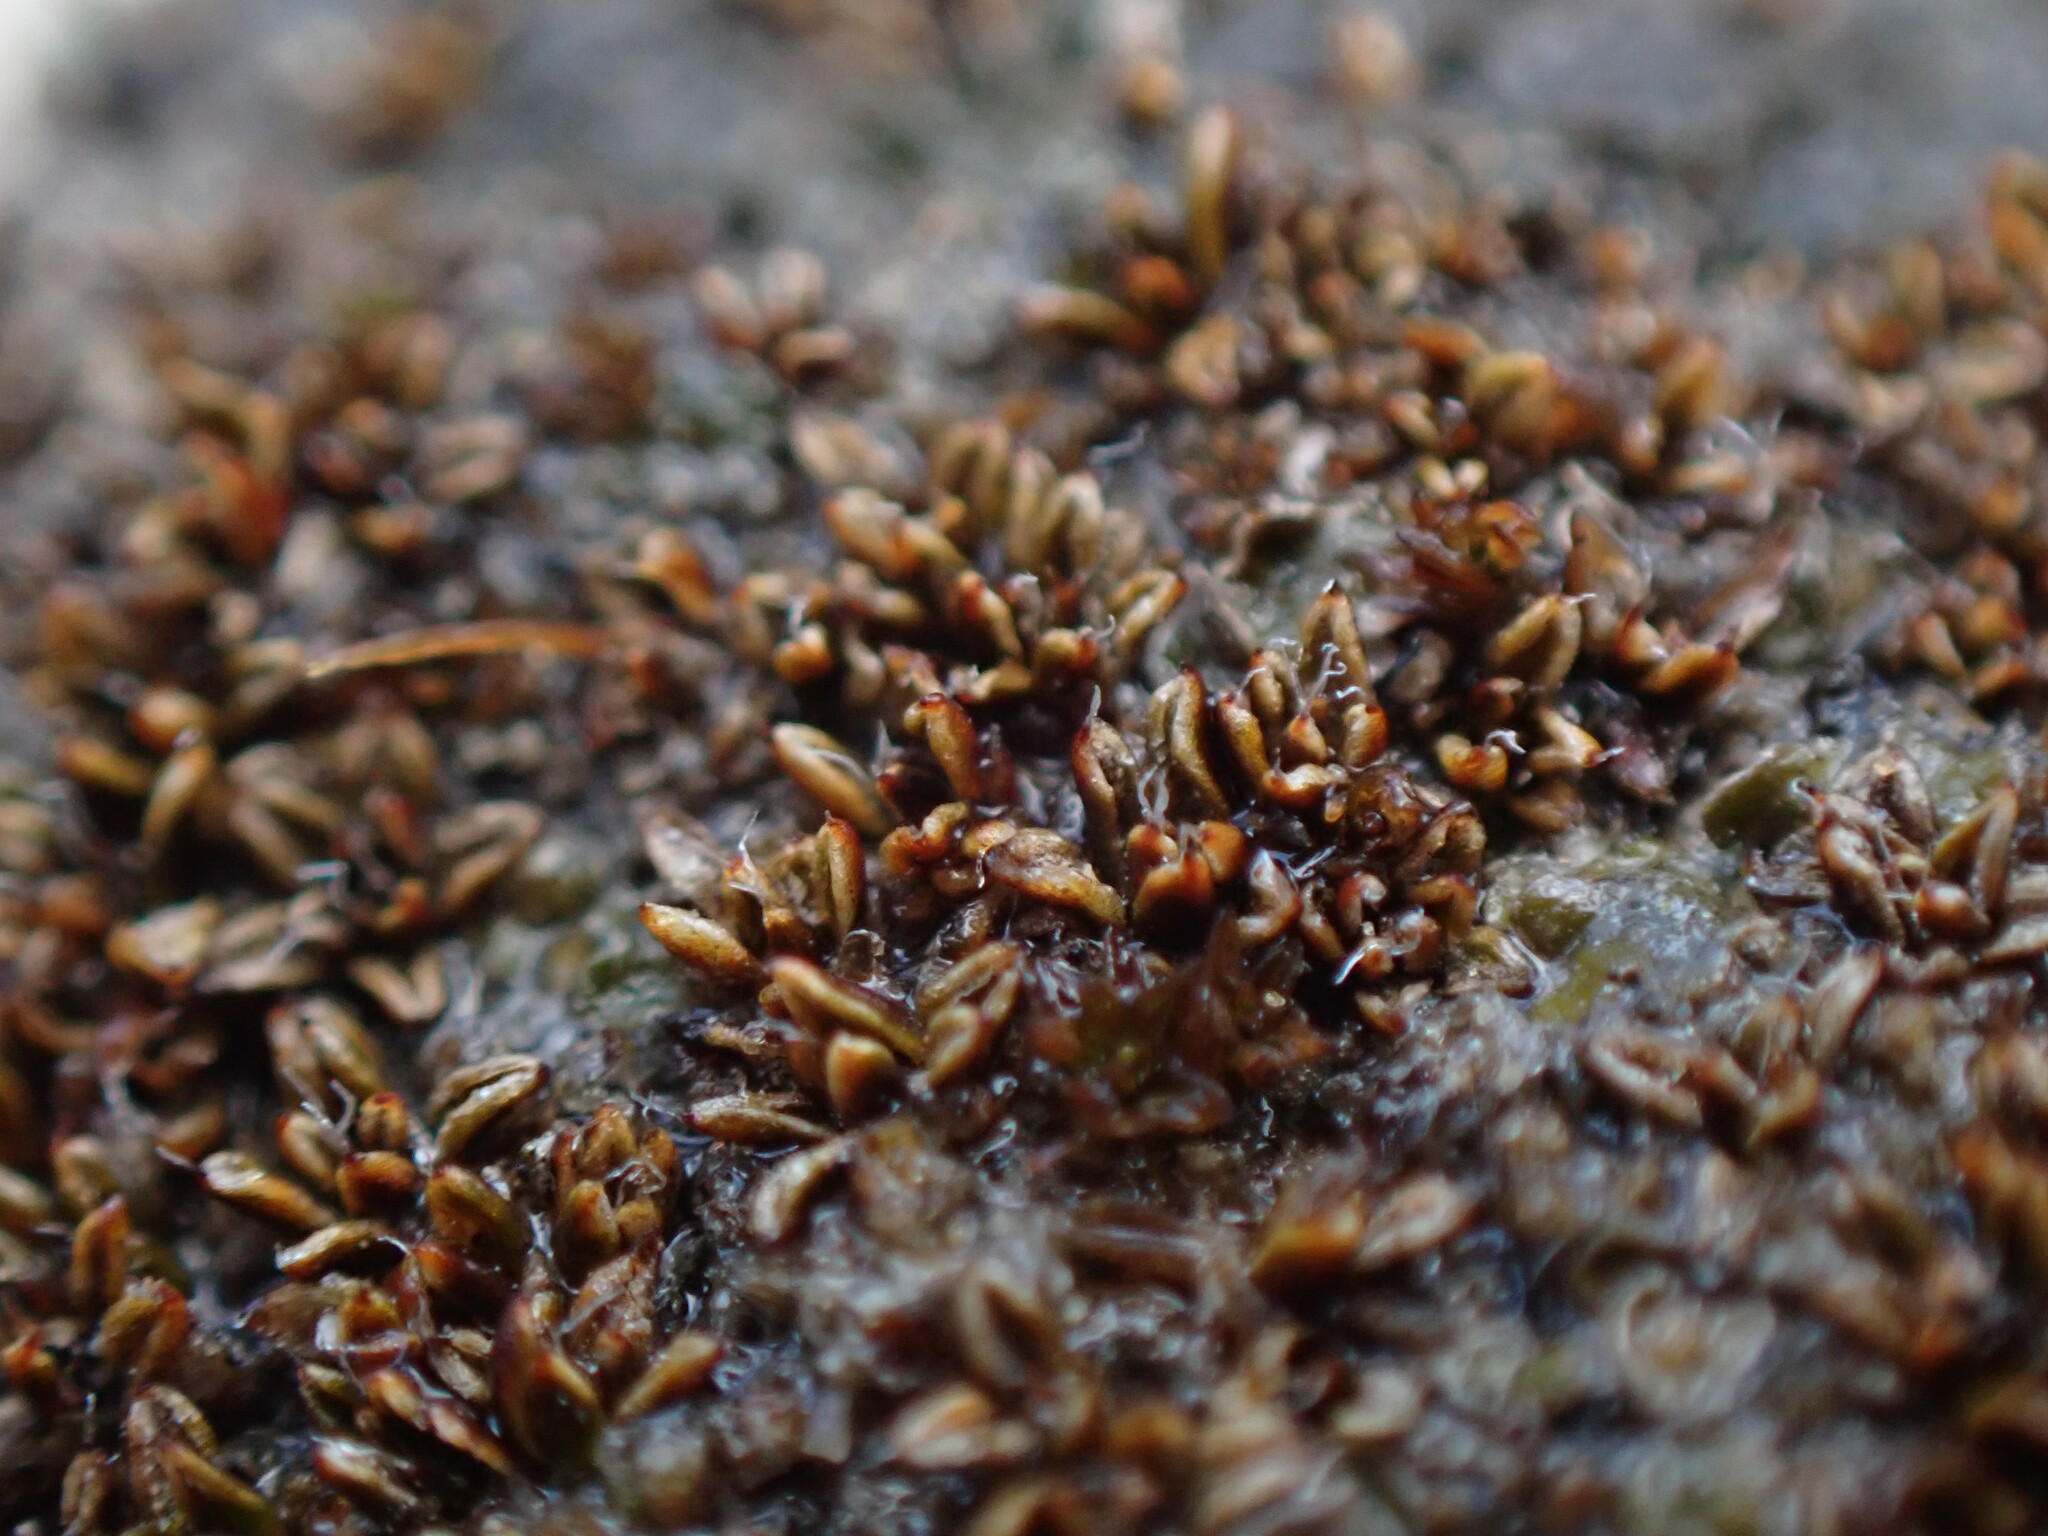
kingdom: Plantae
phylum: Bryophyta
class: Bryopsida
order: Pottiales
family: Pottiaceae
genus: Aloina
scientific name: Aloina bifrons
